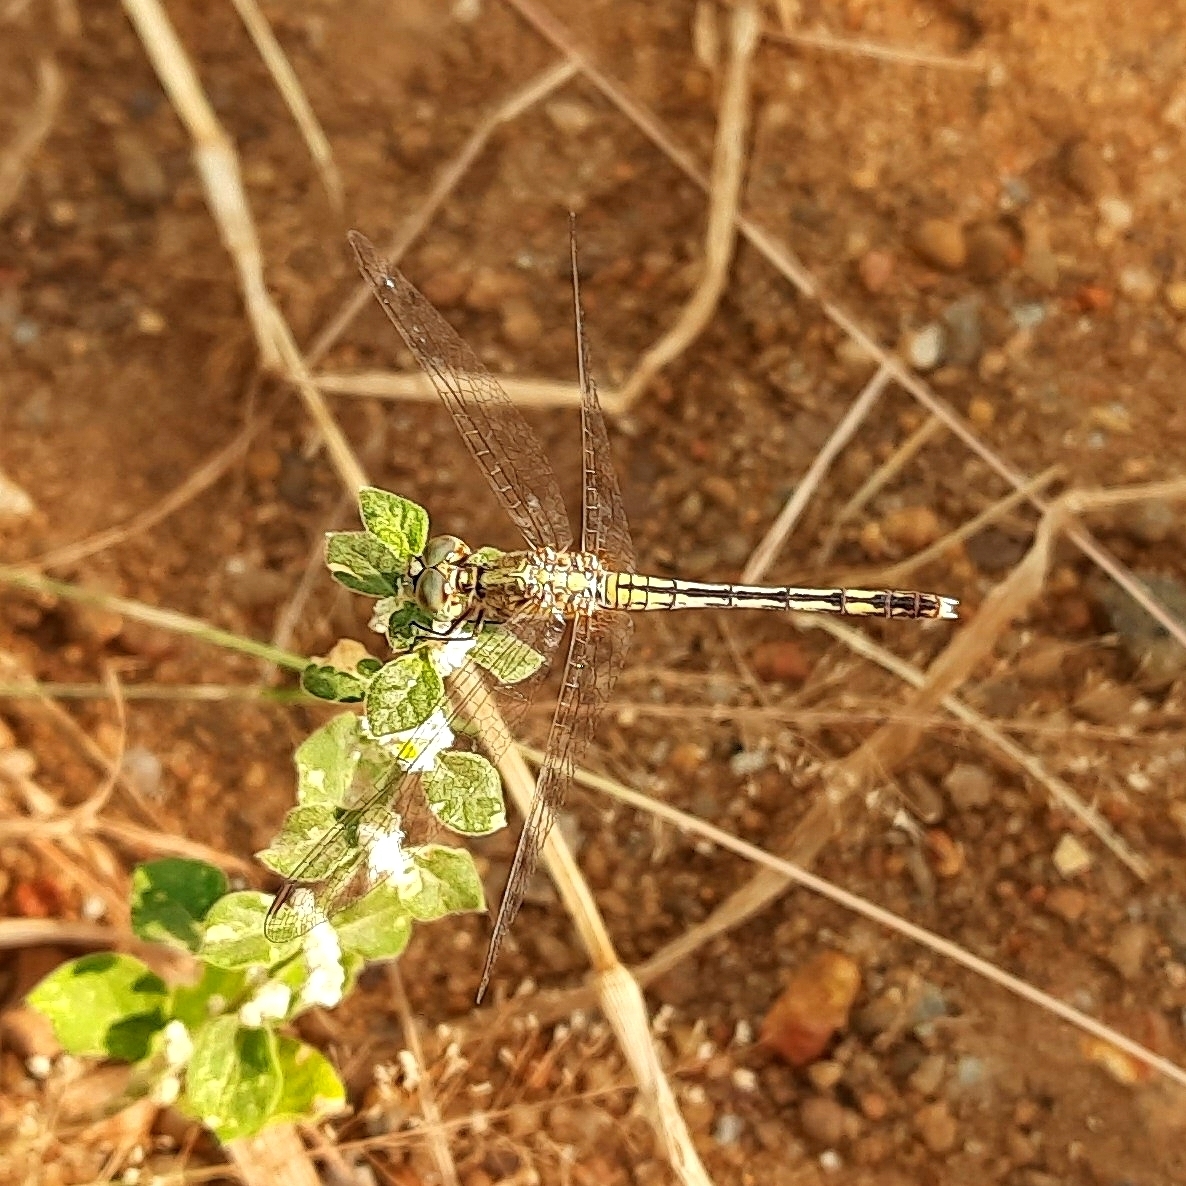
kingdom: Animalia
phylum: Arthropoda
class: Insecta
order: Odonata
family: Libellulidae
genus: Diplacodes
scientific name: Diplacodes trivialis
